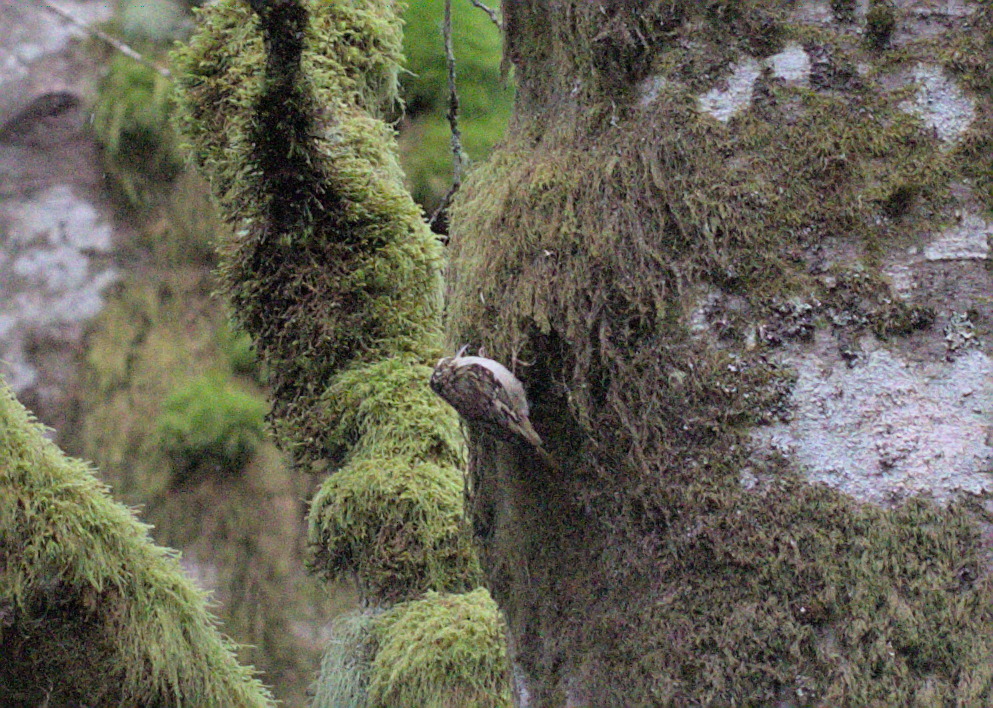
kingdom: Animalia
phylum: Chordata
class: Aves
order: Passeriformes
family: Certhiidae
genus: Certhia
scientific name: Certhia americana
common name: Brown creeper
